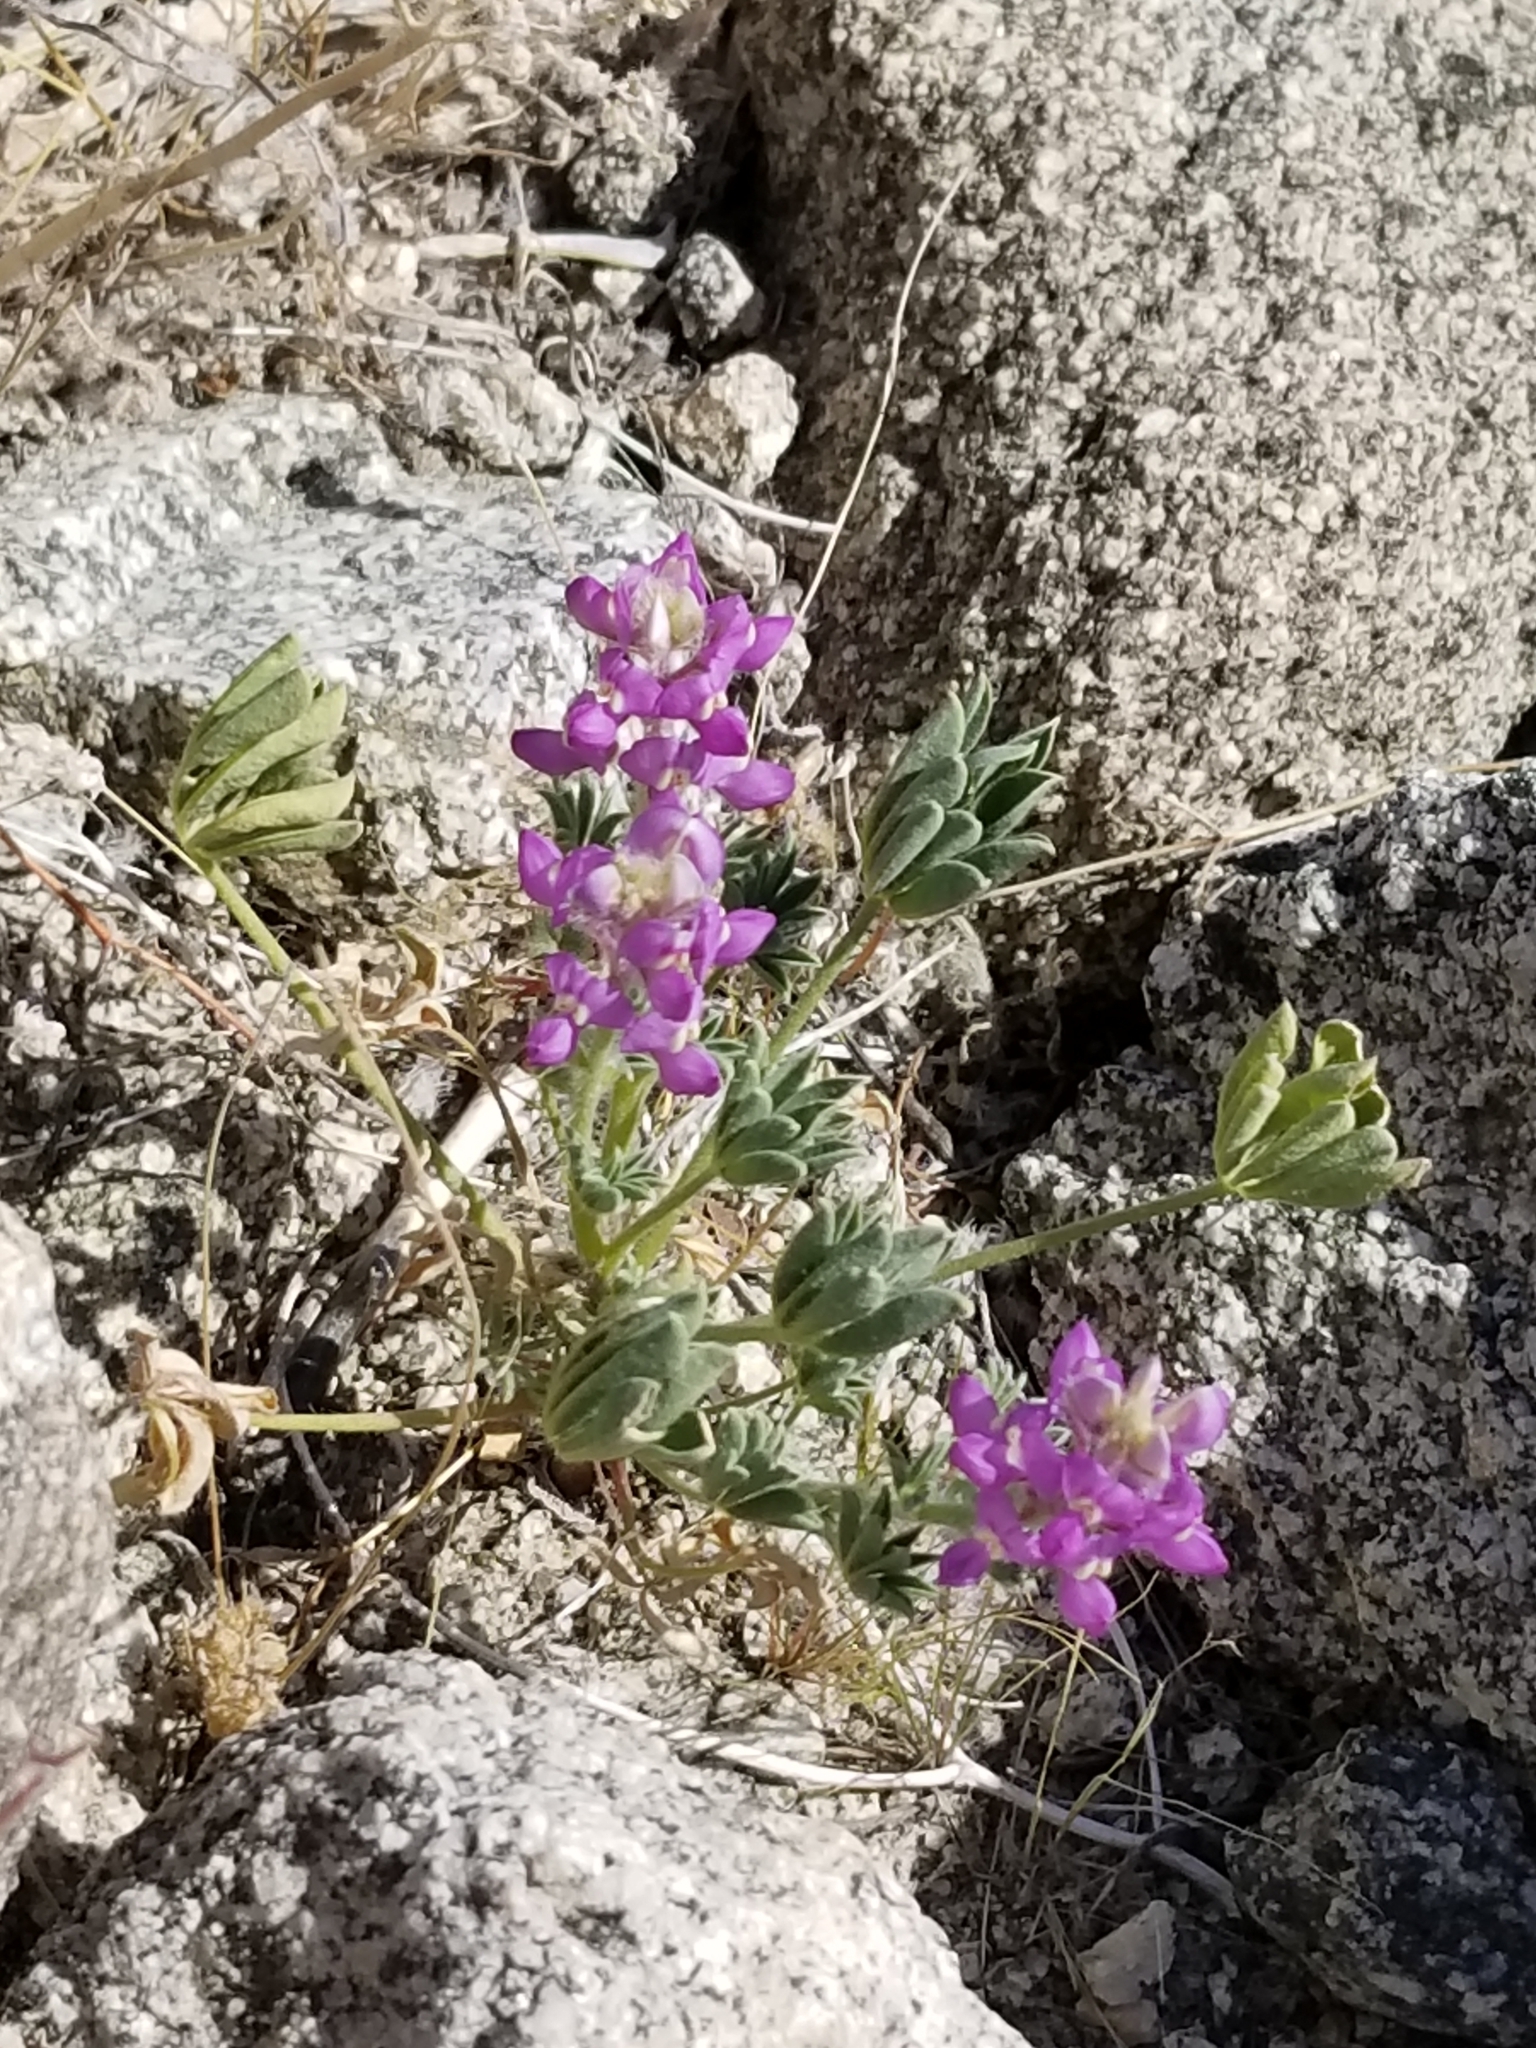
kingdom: Plantae
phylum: Tracheophyta
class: Magnoliopsida
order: Fabales
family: Fabaceae
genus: Lupinus
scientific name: Lupinus arizonicus
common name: Arizona lupine
